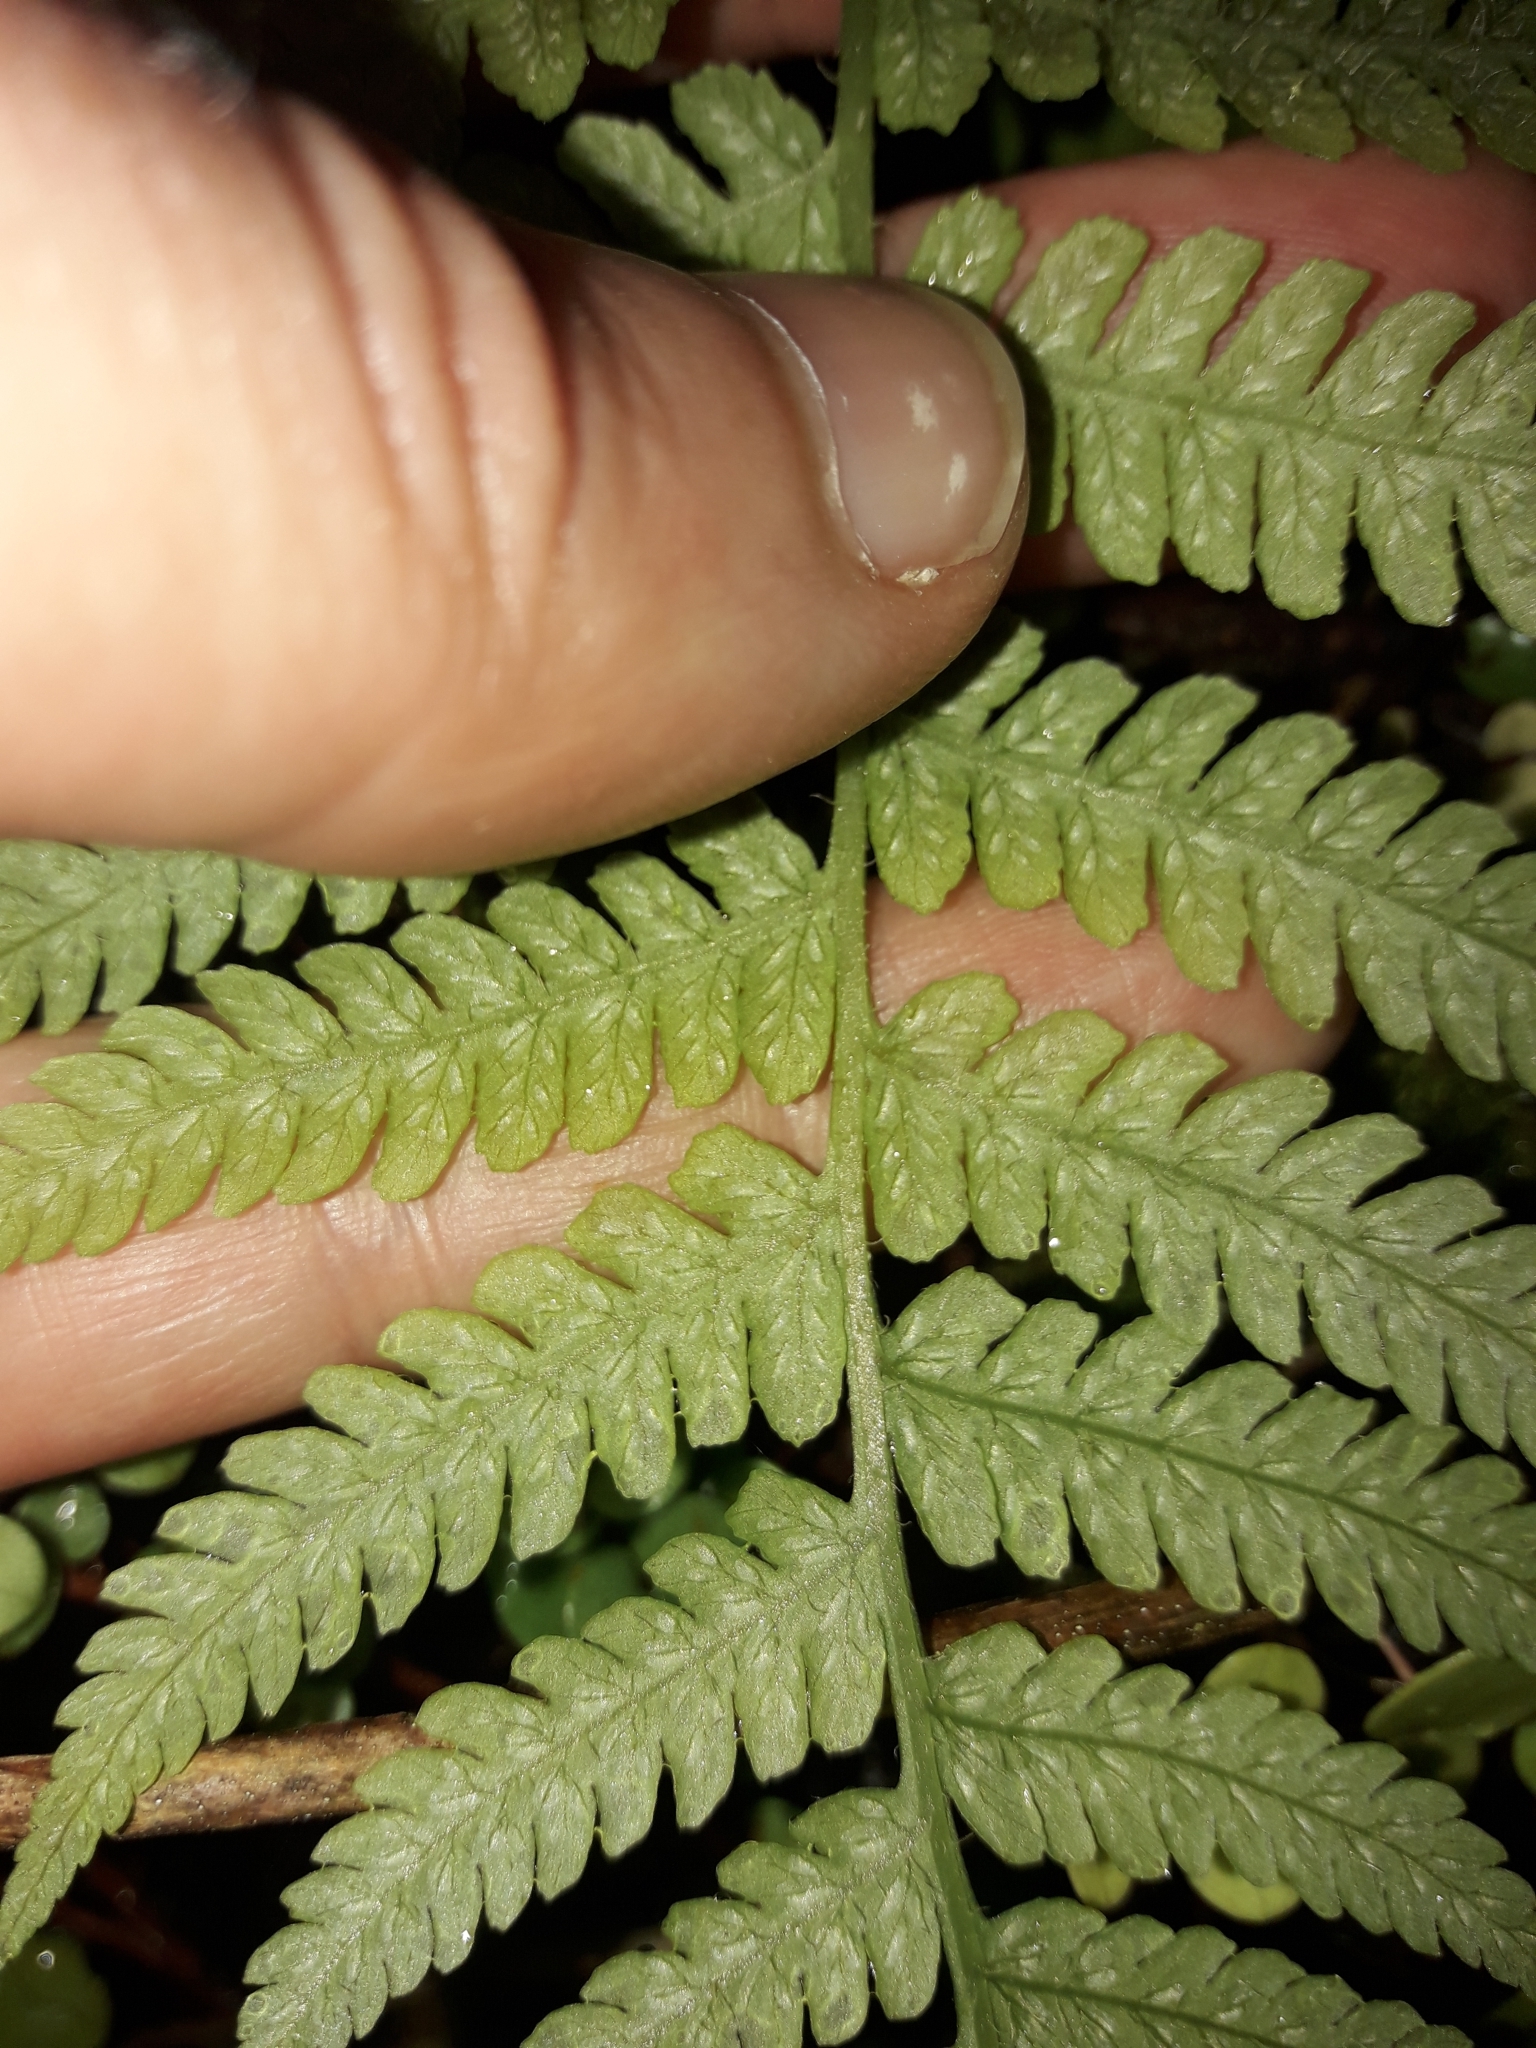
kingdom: Plantae
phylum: Tracheophyta
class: Polypodiopsida
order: Polypodiales
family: Athyriaceae
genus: Deparia
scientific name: Deparia petersenii
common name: Japanese false spleenwort
